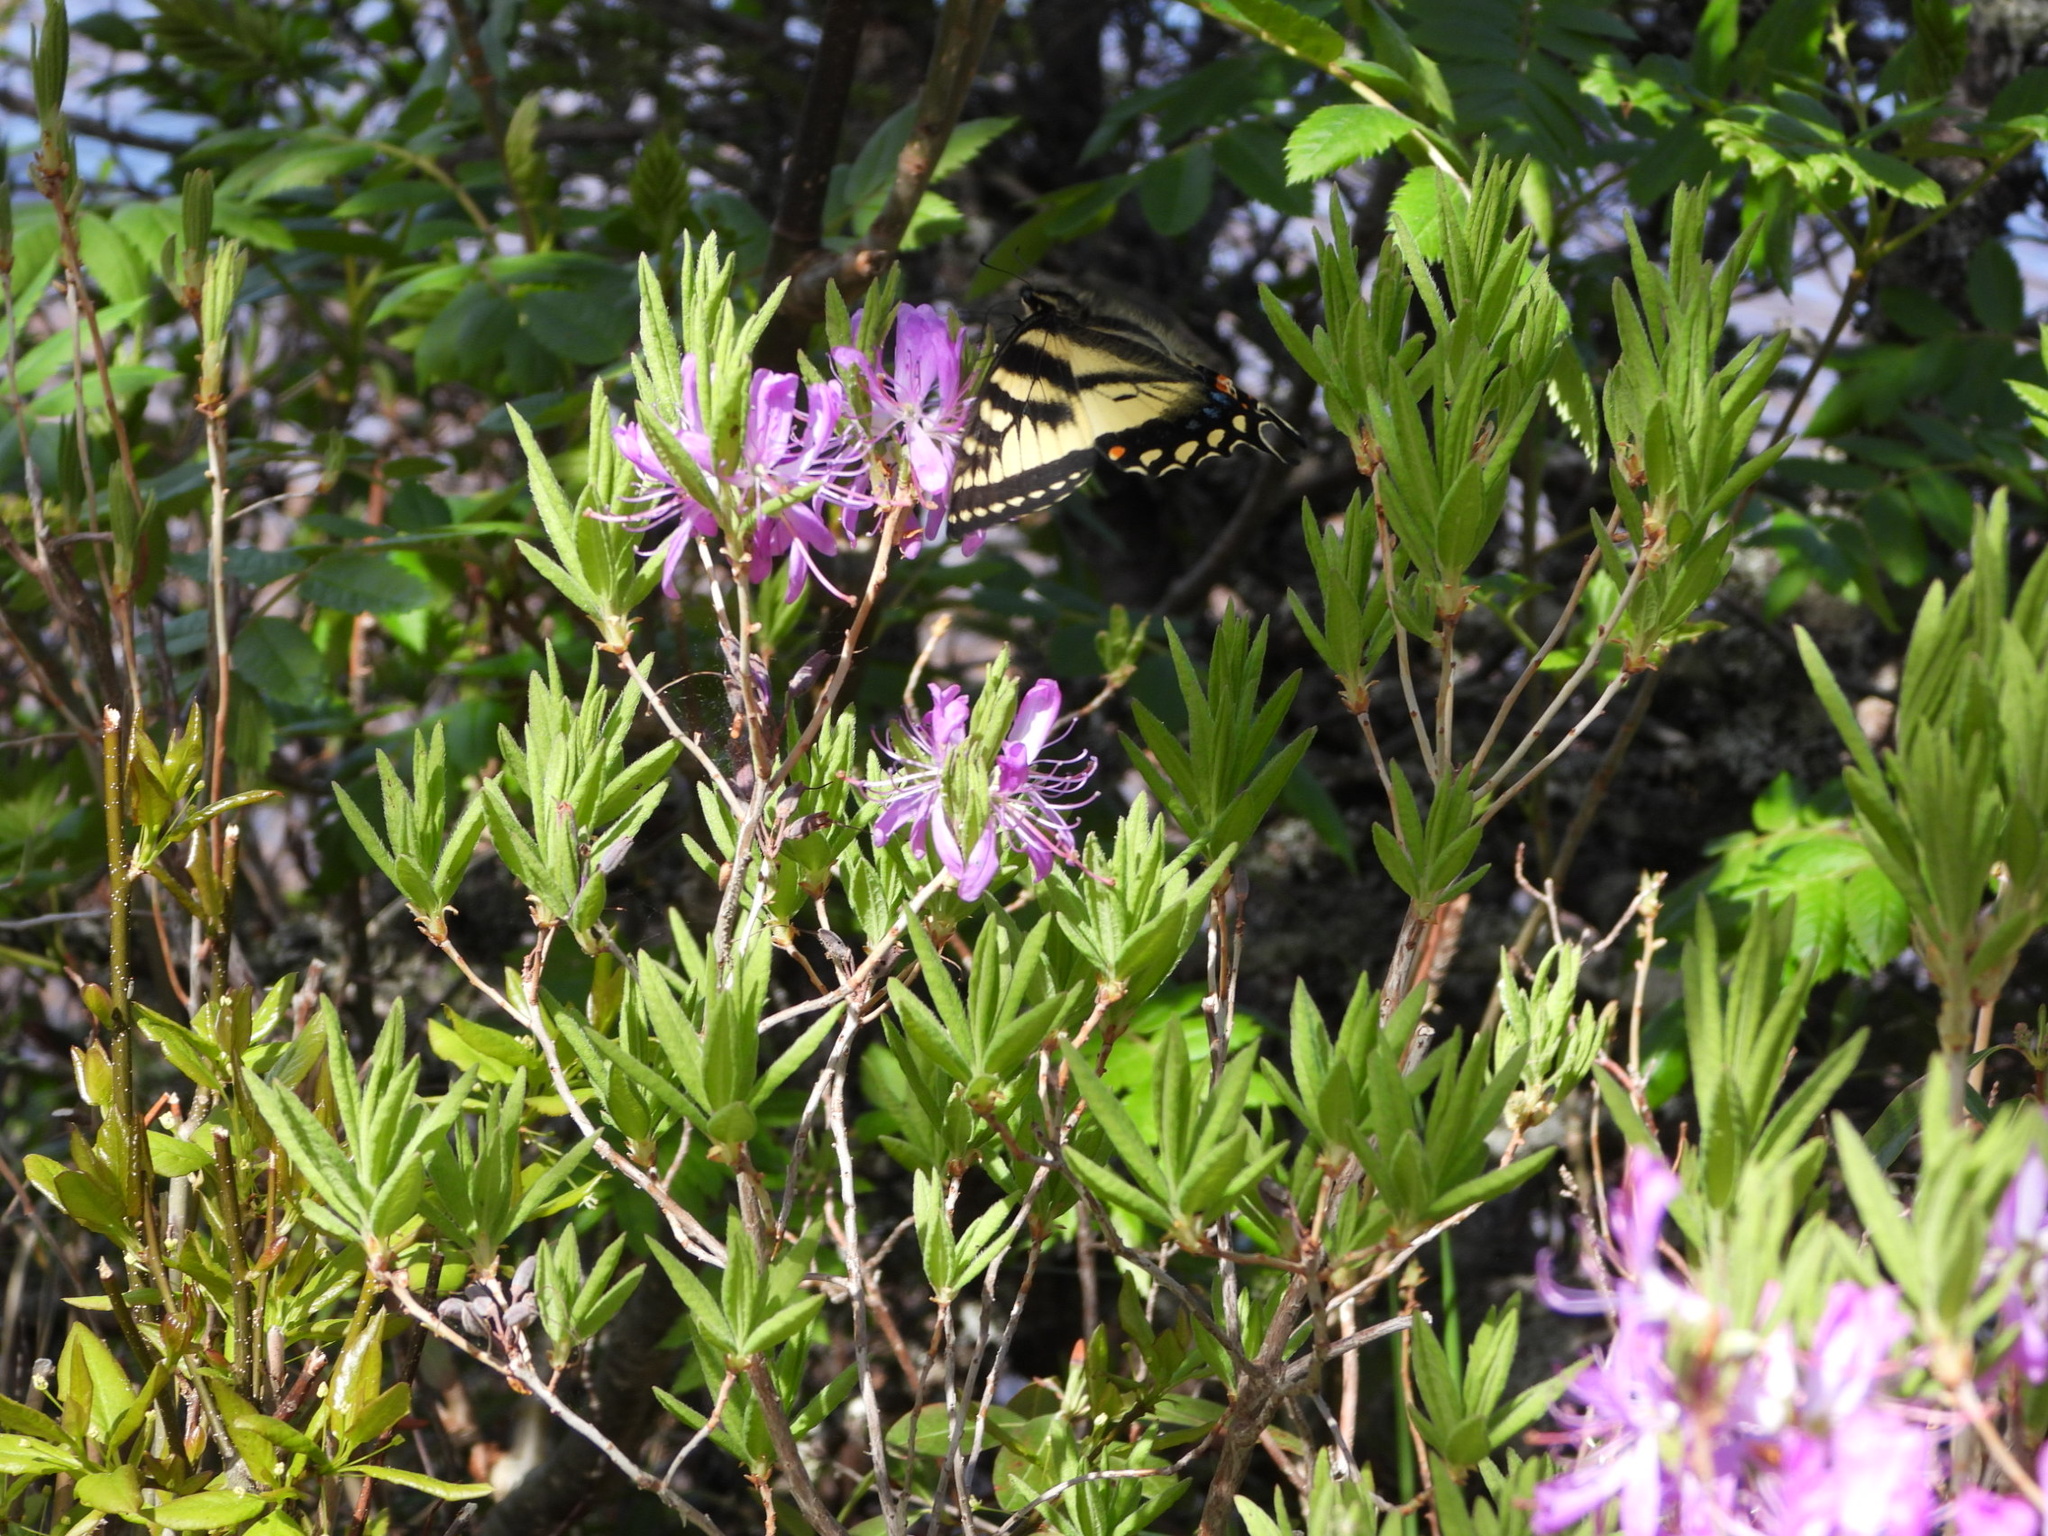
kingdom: Animalia
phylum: Arthropoda
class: Insecta
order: Lepidoptera
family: Papilionidae
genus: Papilio
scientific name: Papilio canadensis
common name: Canadian tiger swallowtail
